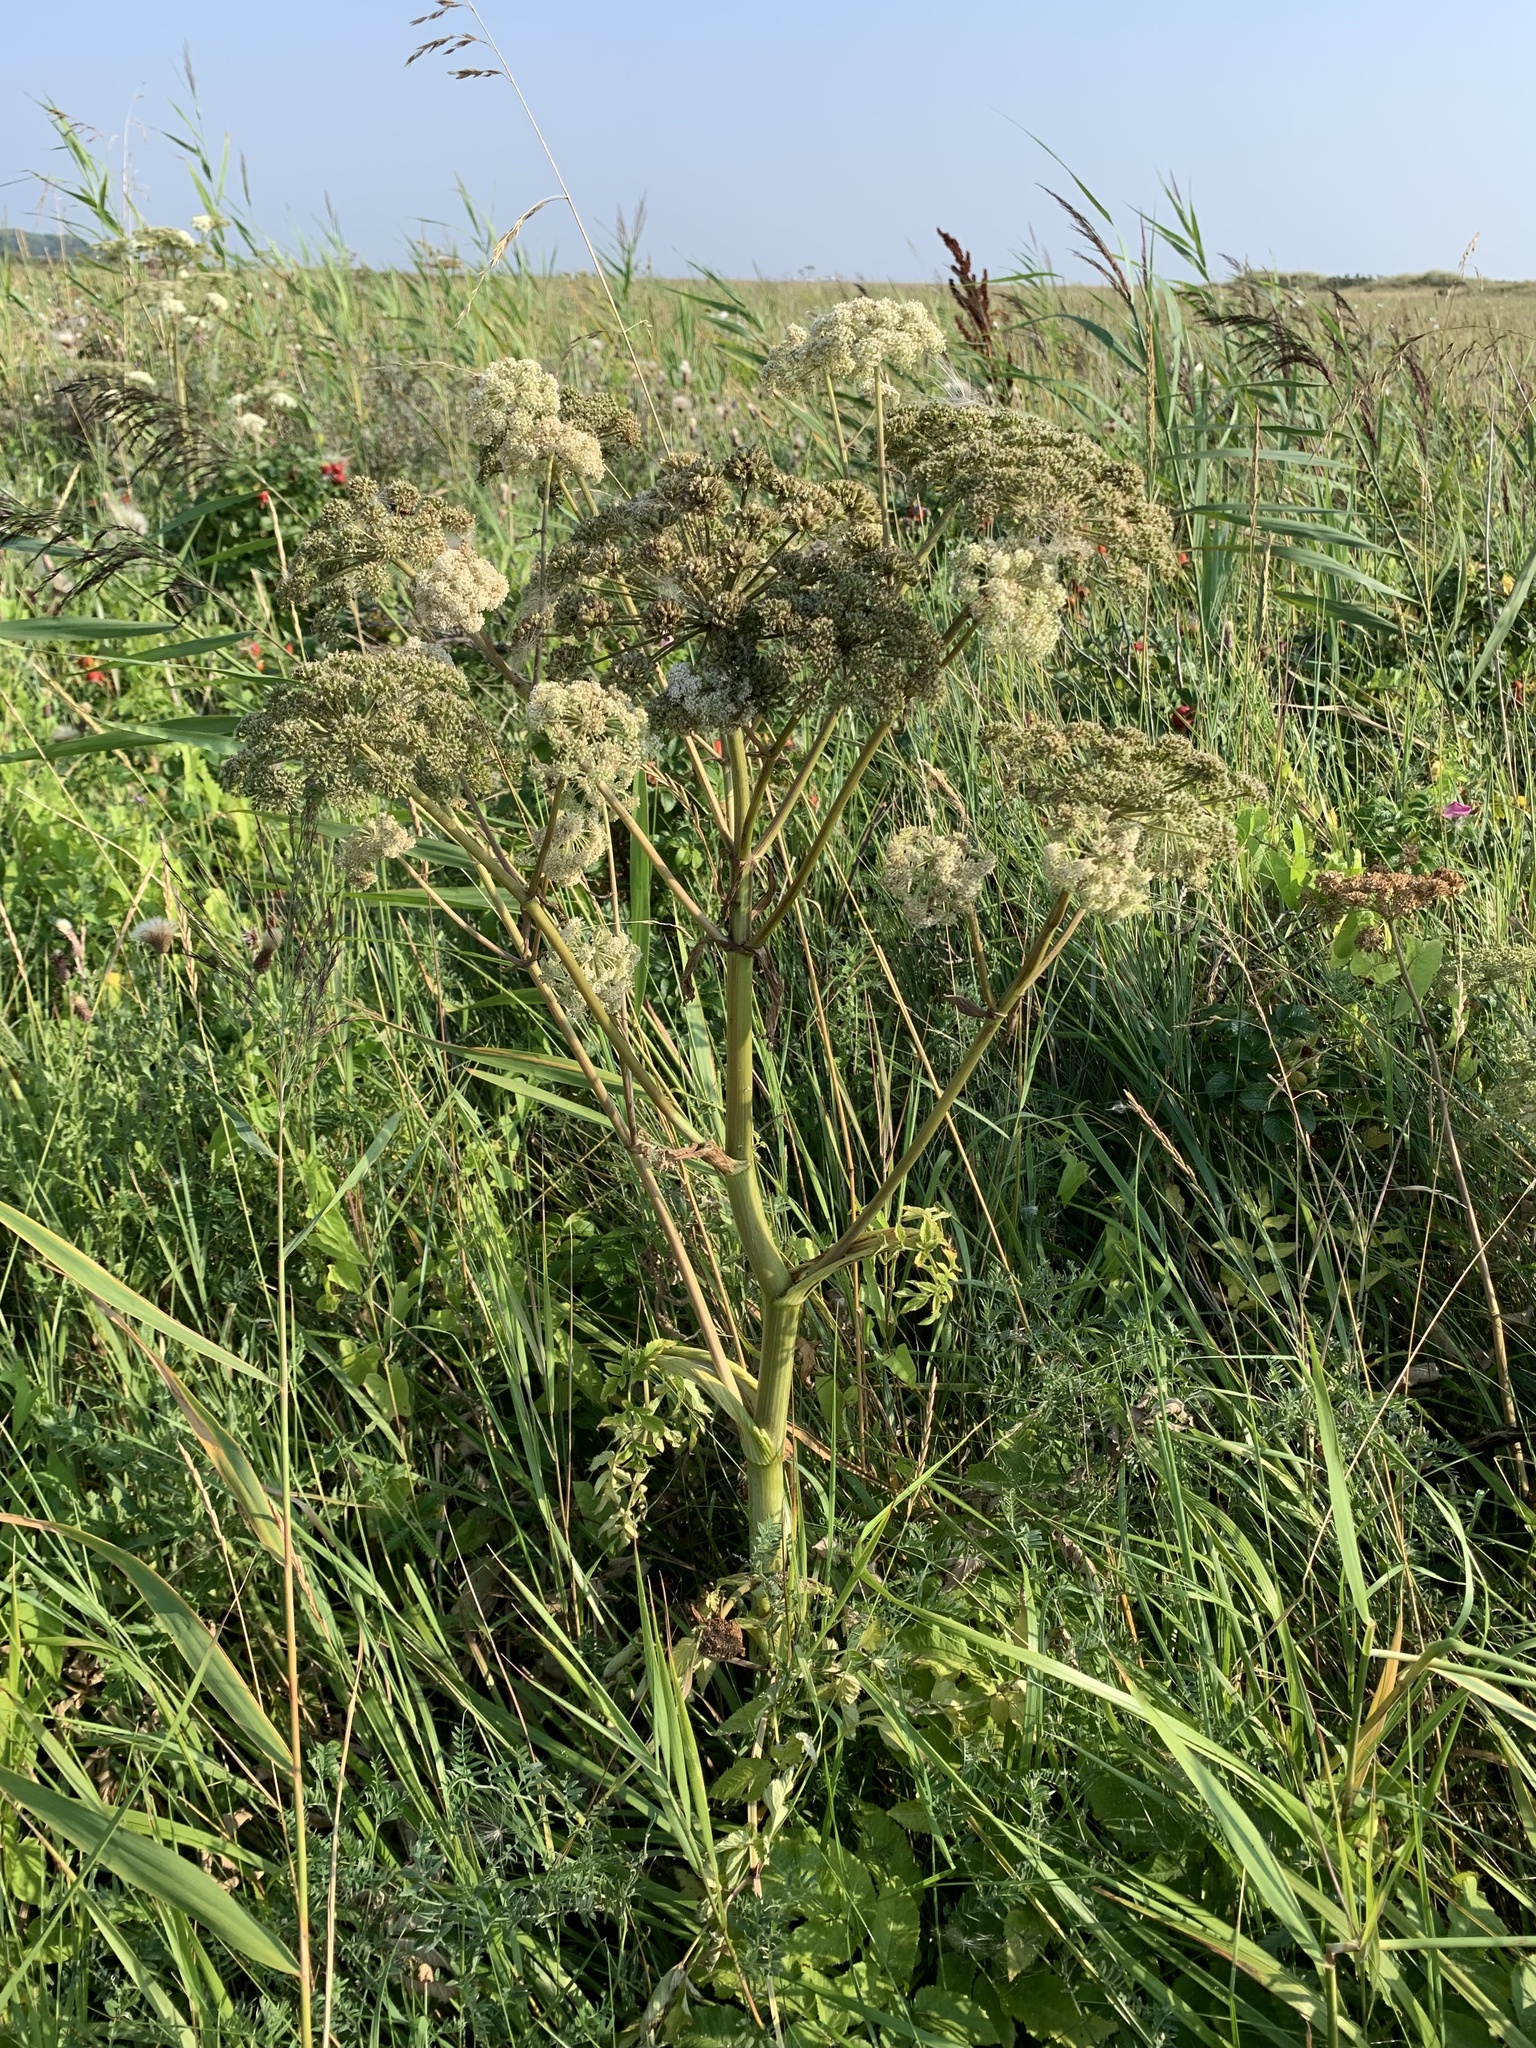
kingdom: Plantae
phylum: Tracheophyta
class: Magnoliopsida
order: Apiales
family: Apiaceae
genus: Angelica
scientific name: Angelica sylvestris
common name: Wild angelica
